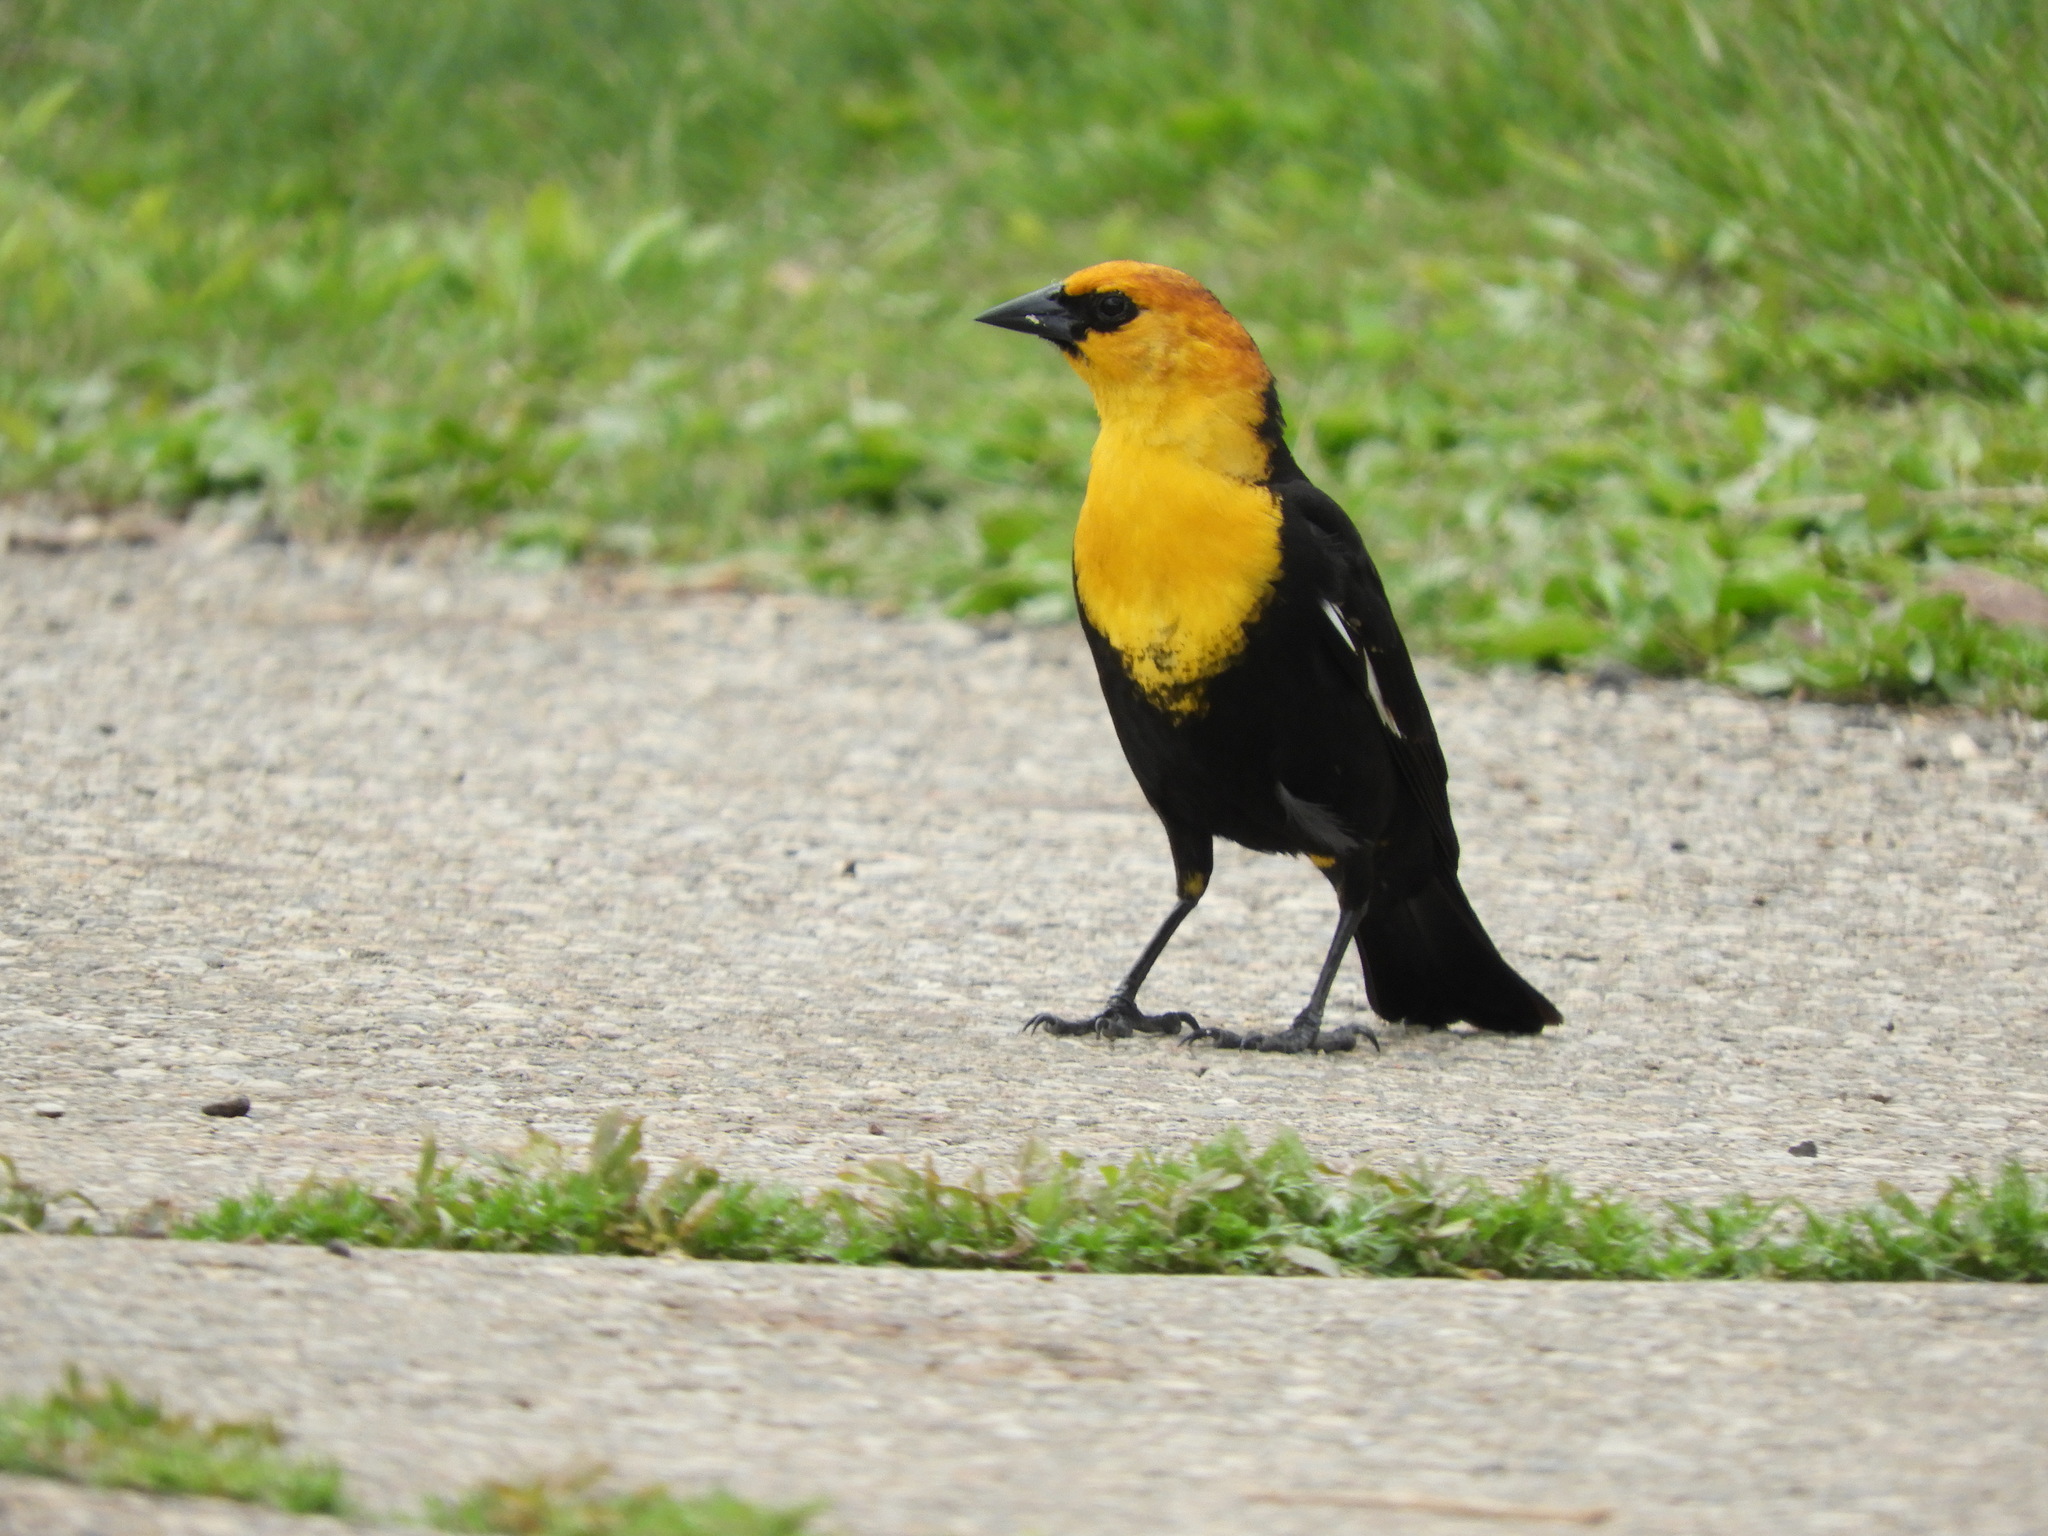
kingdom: Animalia
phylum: Chordata
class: Aves
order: Passeriformes
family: Icteridae
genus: Xanthocephalus
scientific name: Xanthocephalus xanthocephalus
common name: Yellow-headed blackbird
